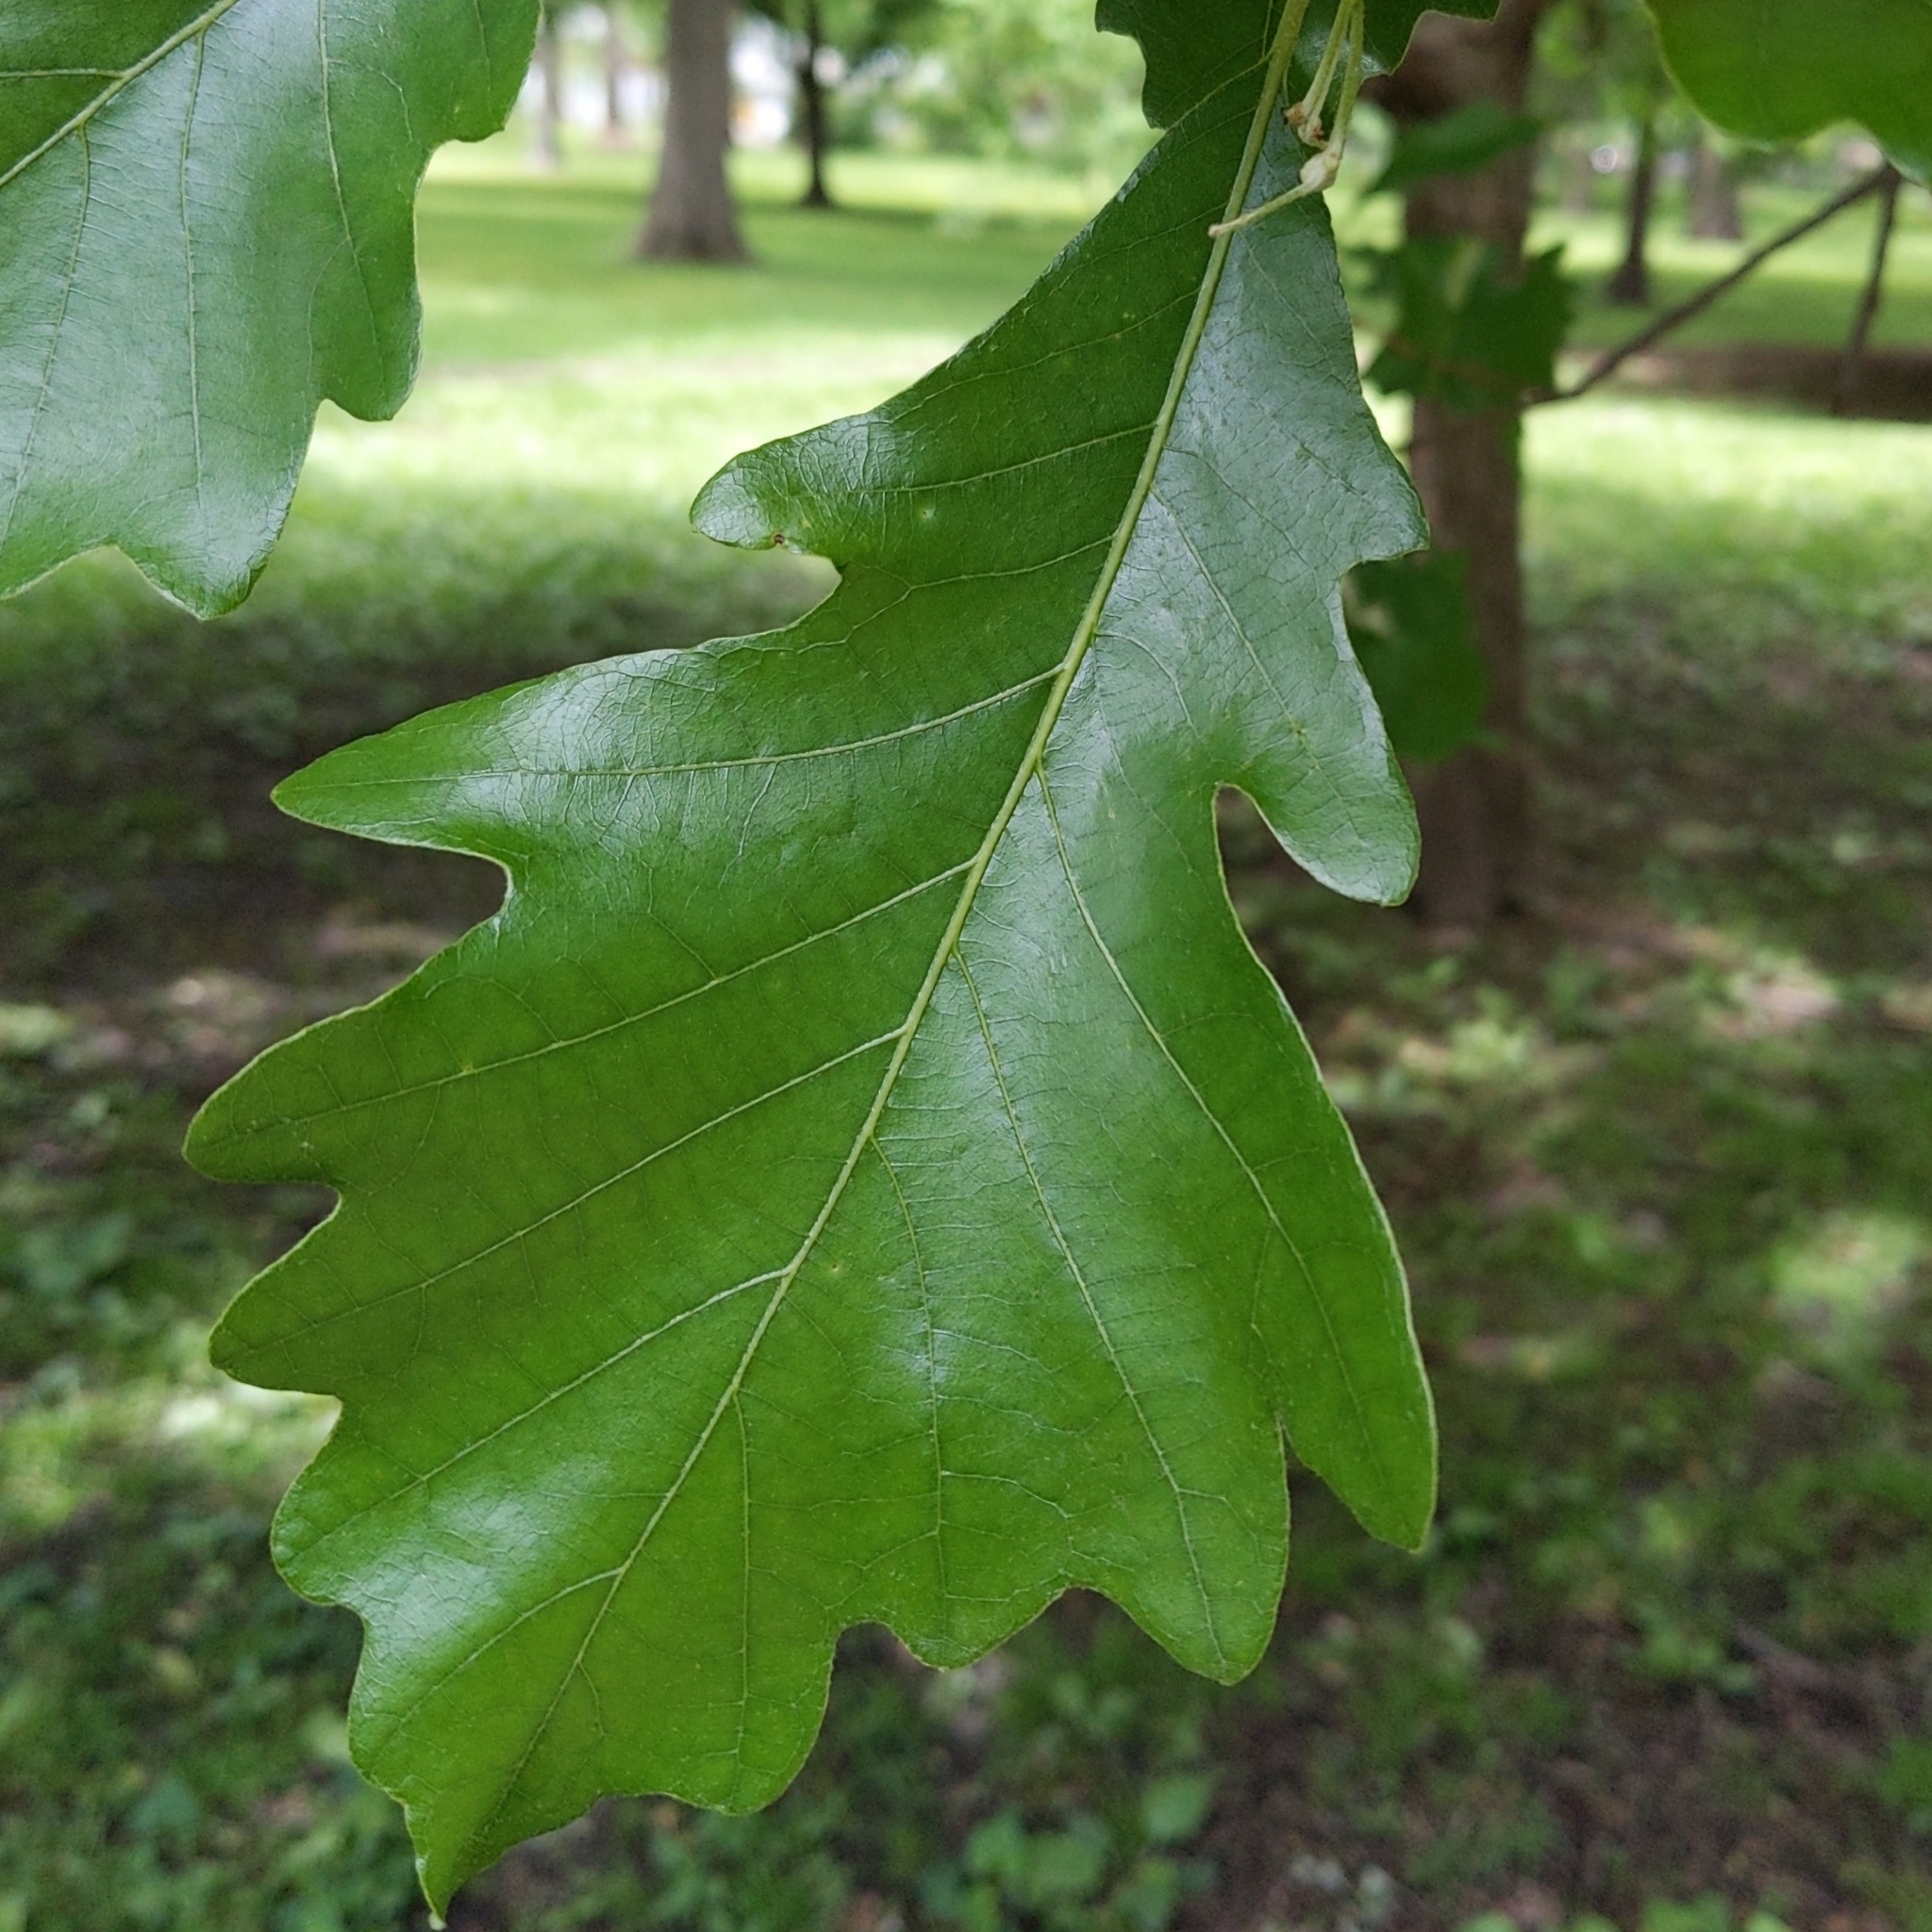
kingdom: Plantae
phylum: Tracheophyta
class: Magnoliopsida
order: Fagales
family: Fagaceae
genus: Quercus
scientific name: Quercus bicolor
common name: Swamp white oak
